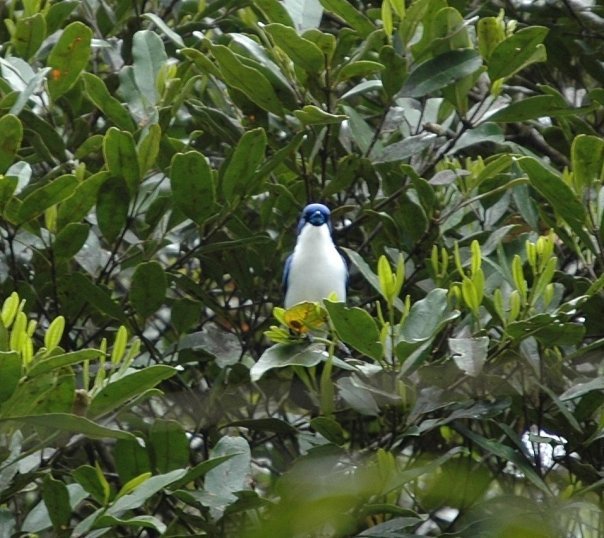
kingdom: Animalia
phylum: Chordata
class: Aves
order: Passeriformes
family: Vangidae
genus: Cyanolanius
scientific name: Cyanolanius madagascarinus
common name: Blue vanga
